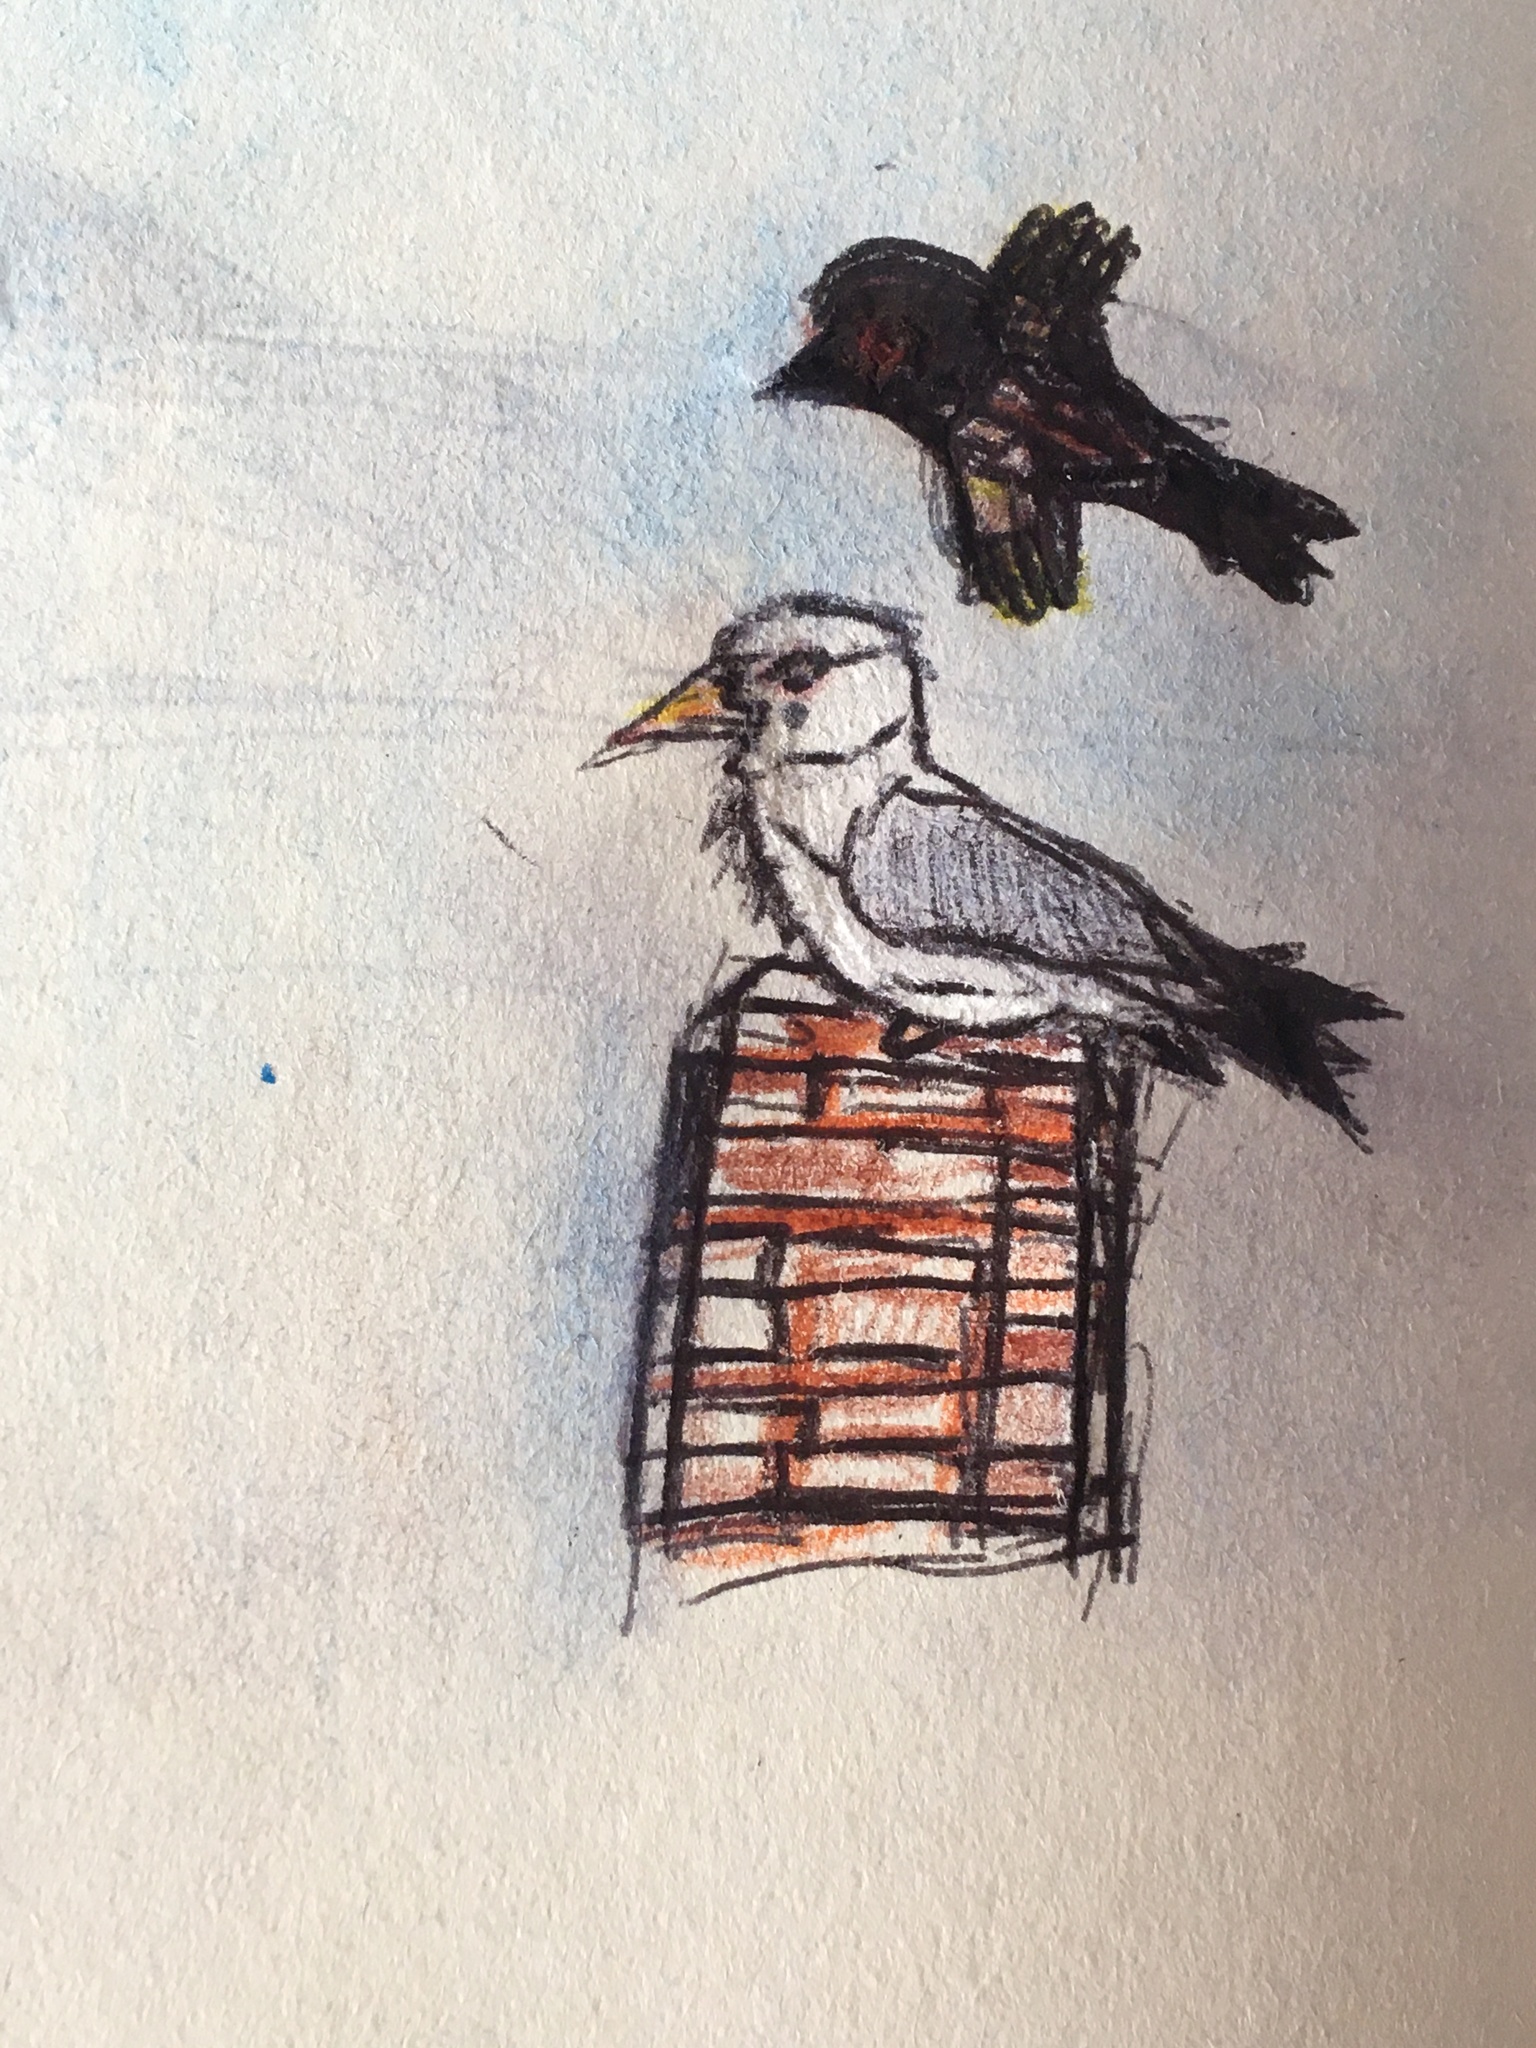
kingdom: Animalia
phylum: Chordata
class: Aves
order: Charadriiformes
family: Laridae
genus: Larus
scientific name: Larus argentatus
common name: Herring gull
